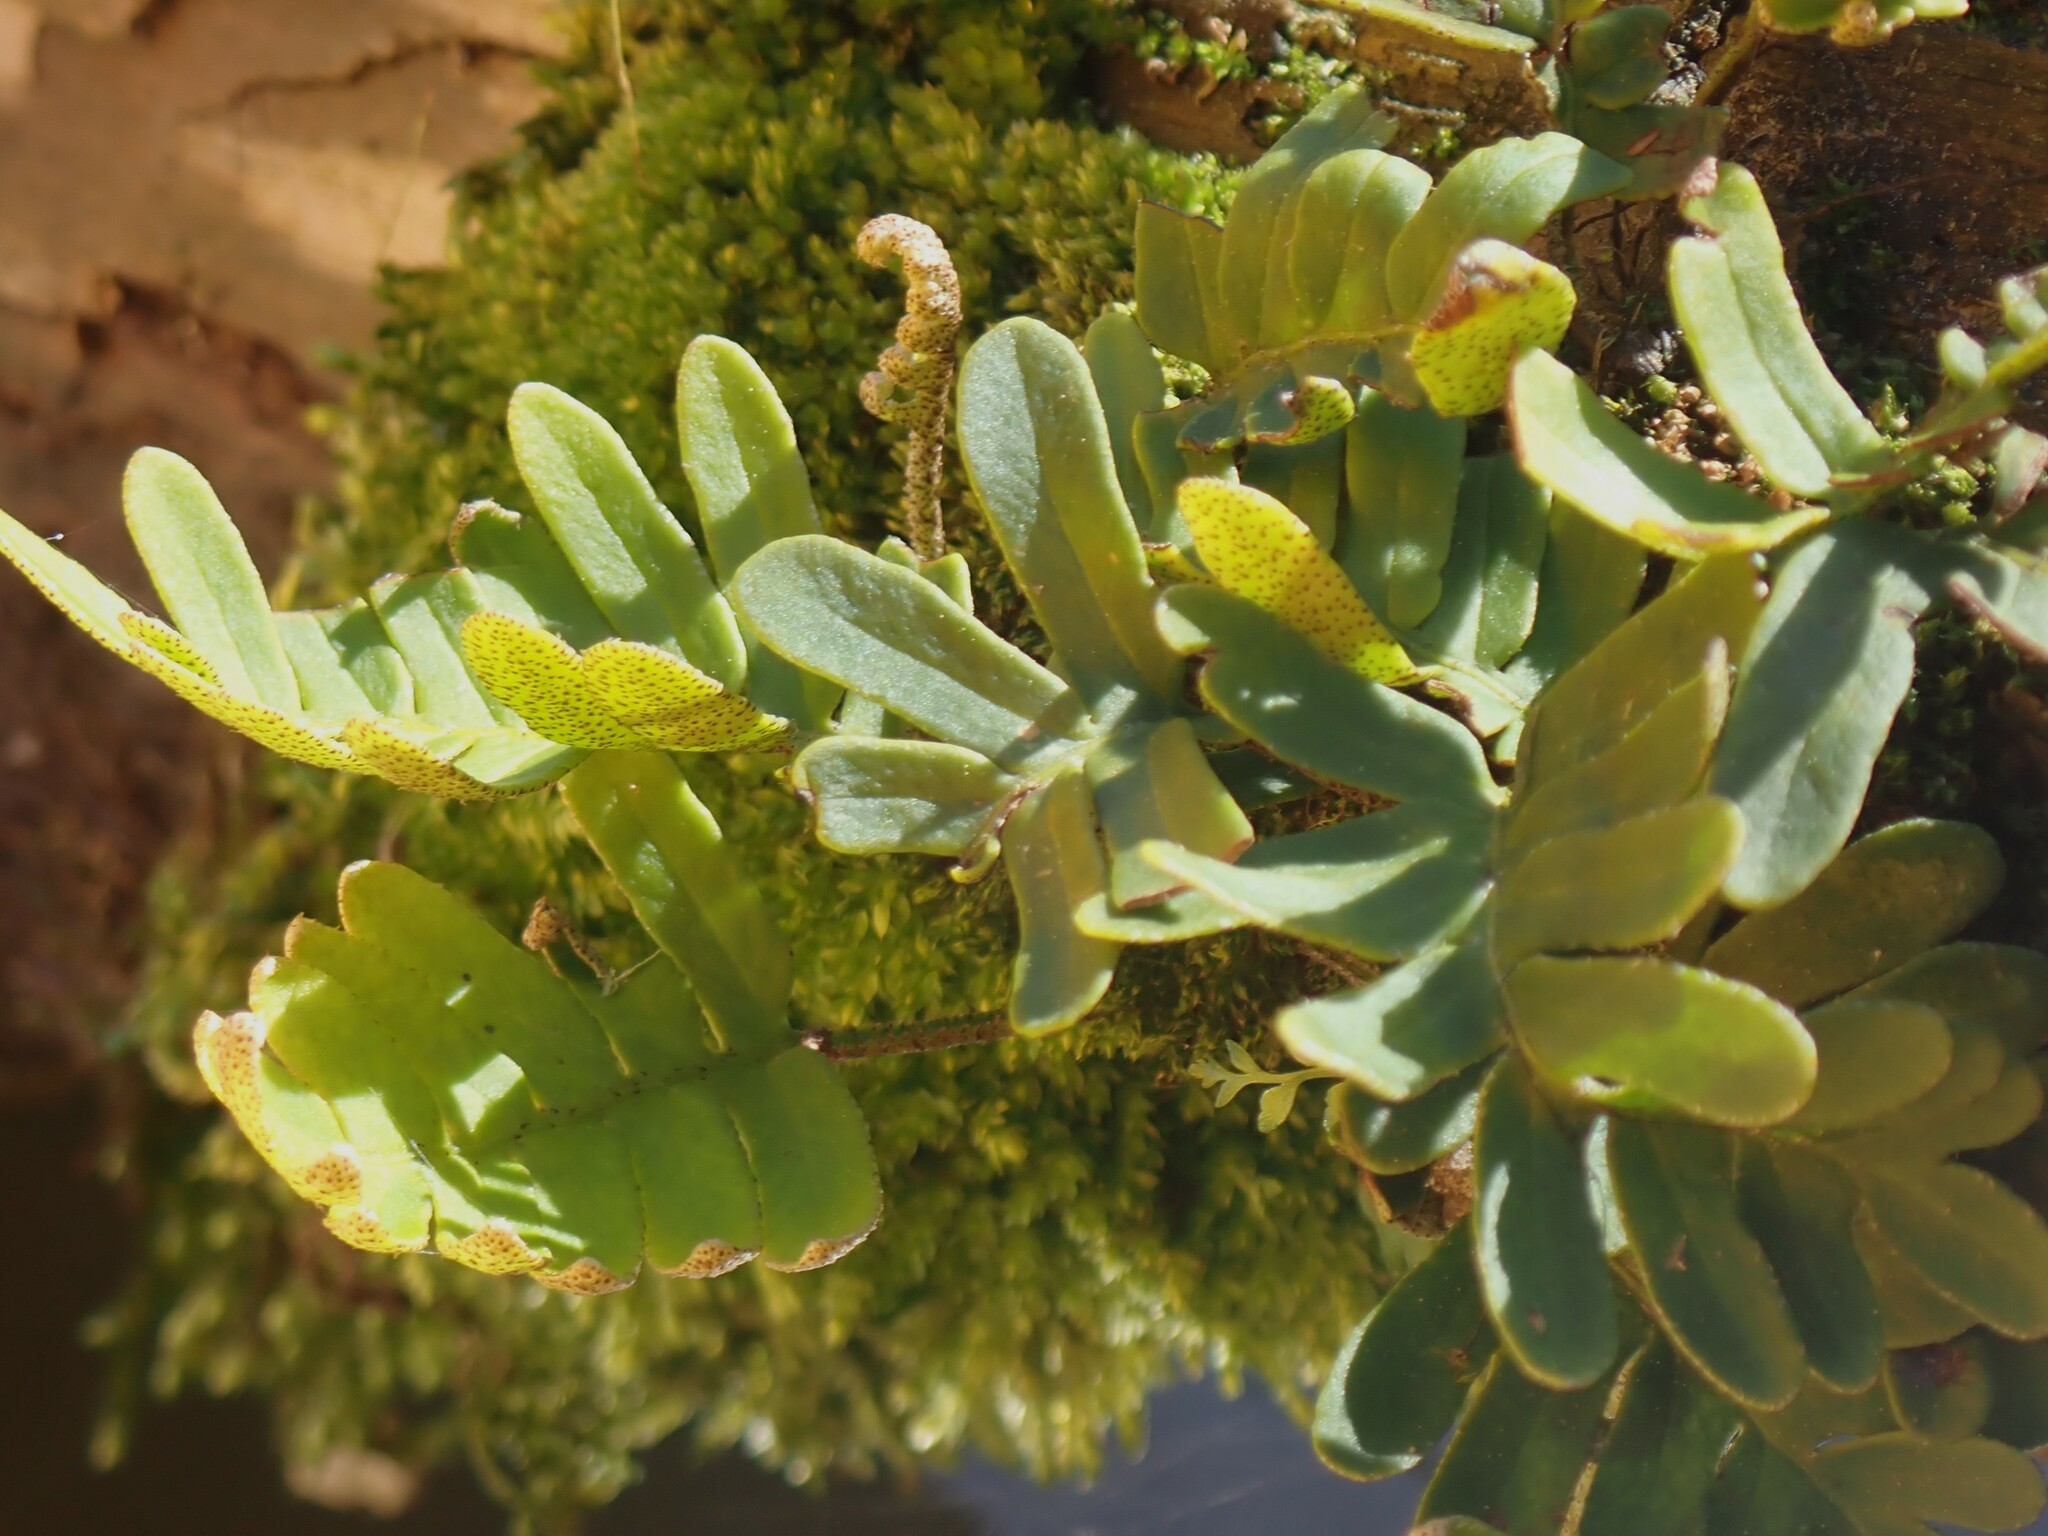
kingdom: Plantae
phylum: Tracheophyta
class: Polypodiopsida
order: Polypodiales
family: Polypodiaceae
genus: Pleopeltis
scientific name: Pleopeltis michauxiana
